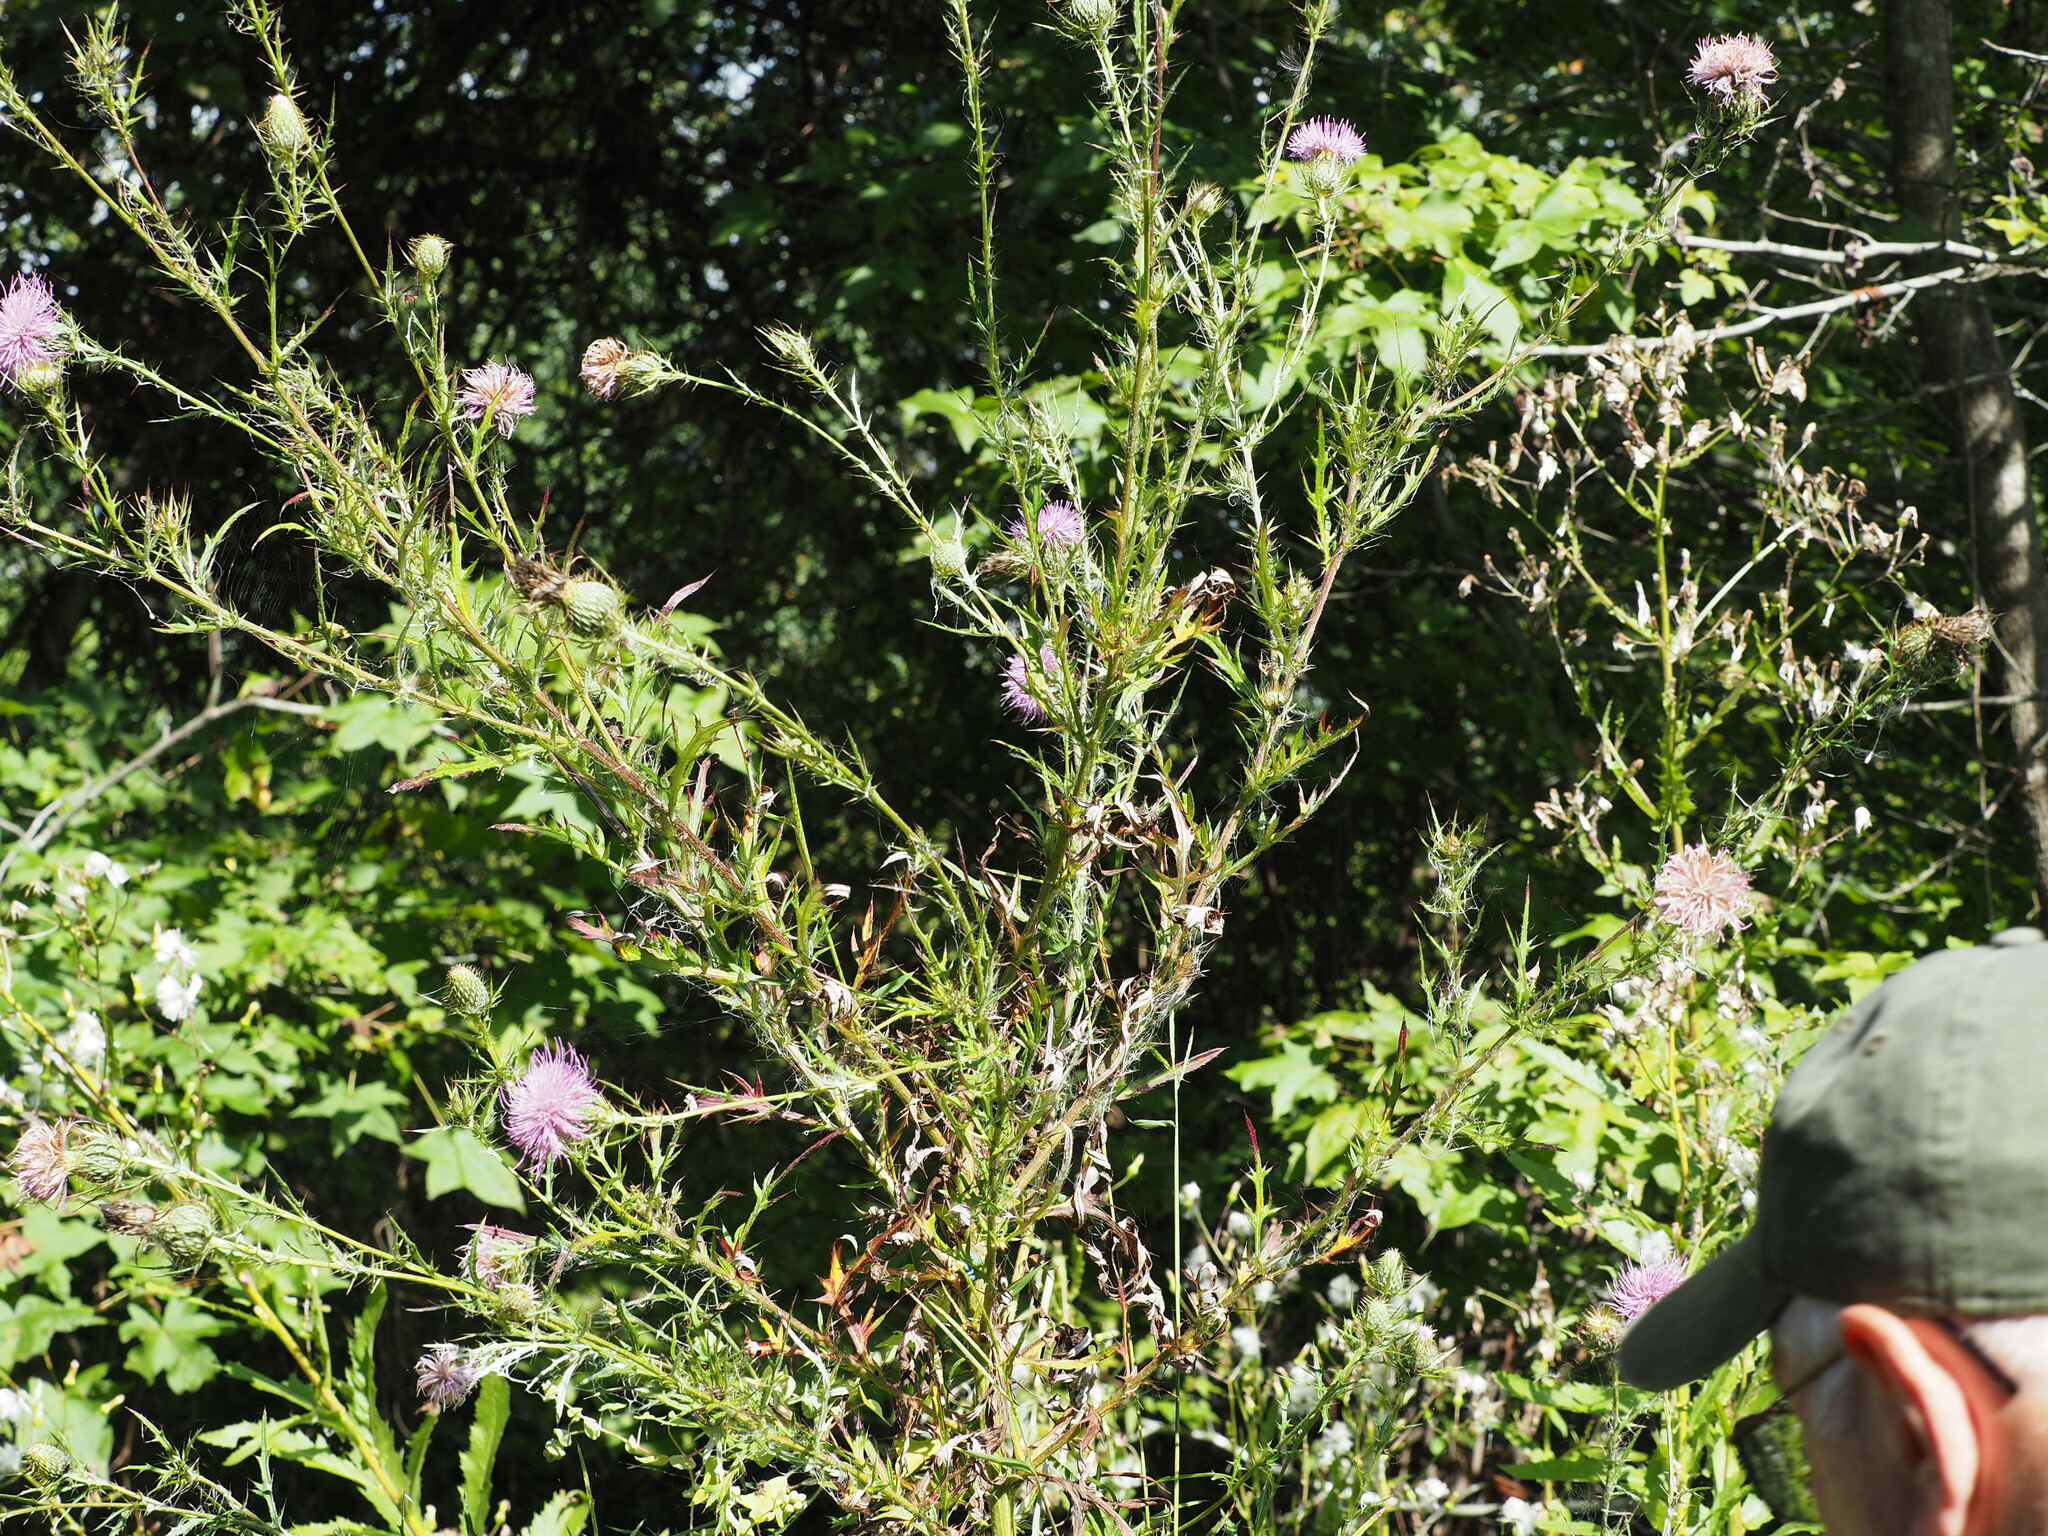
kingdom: Plantae
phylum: Tracheophyta
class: Magnoliopsida
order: Asterales
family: Asteraceae
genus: Cirsium
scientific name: Cirsium discolor
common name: Field thistle
